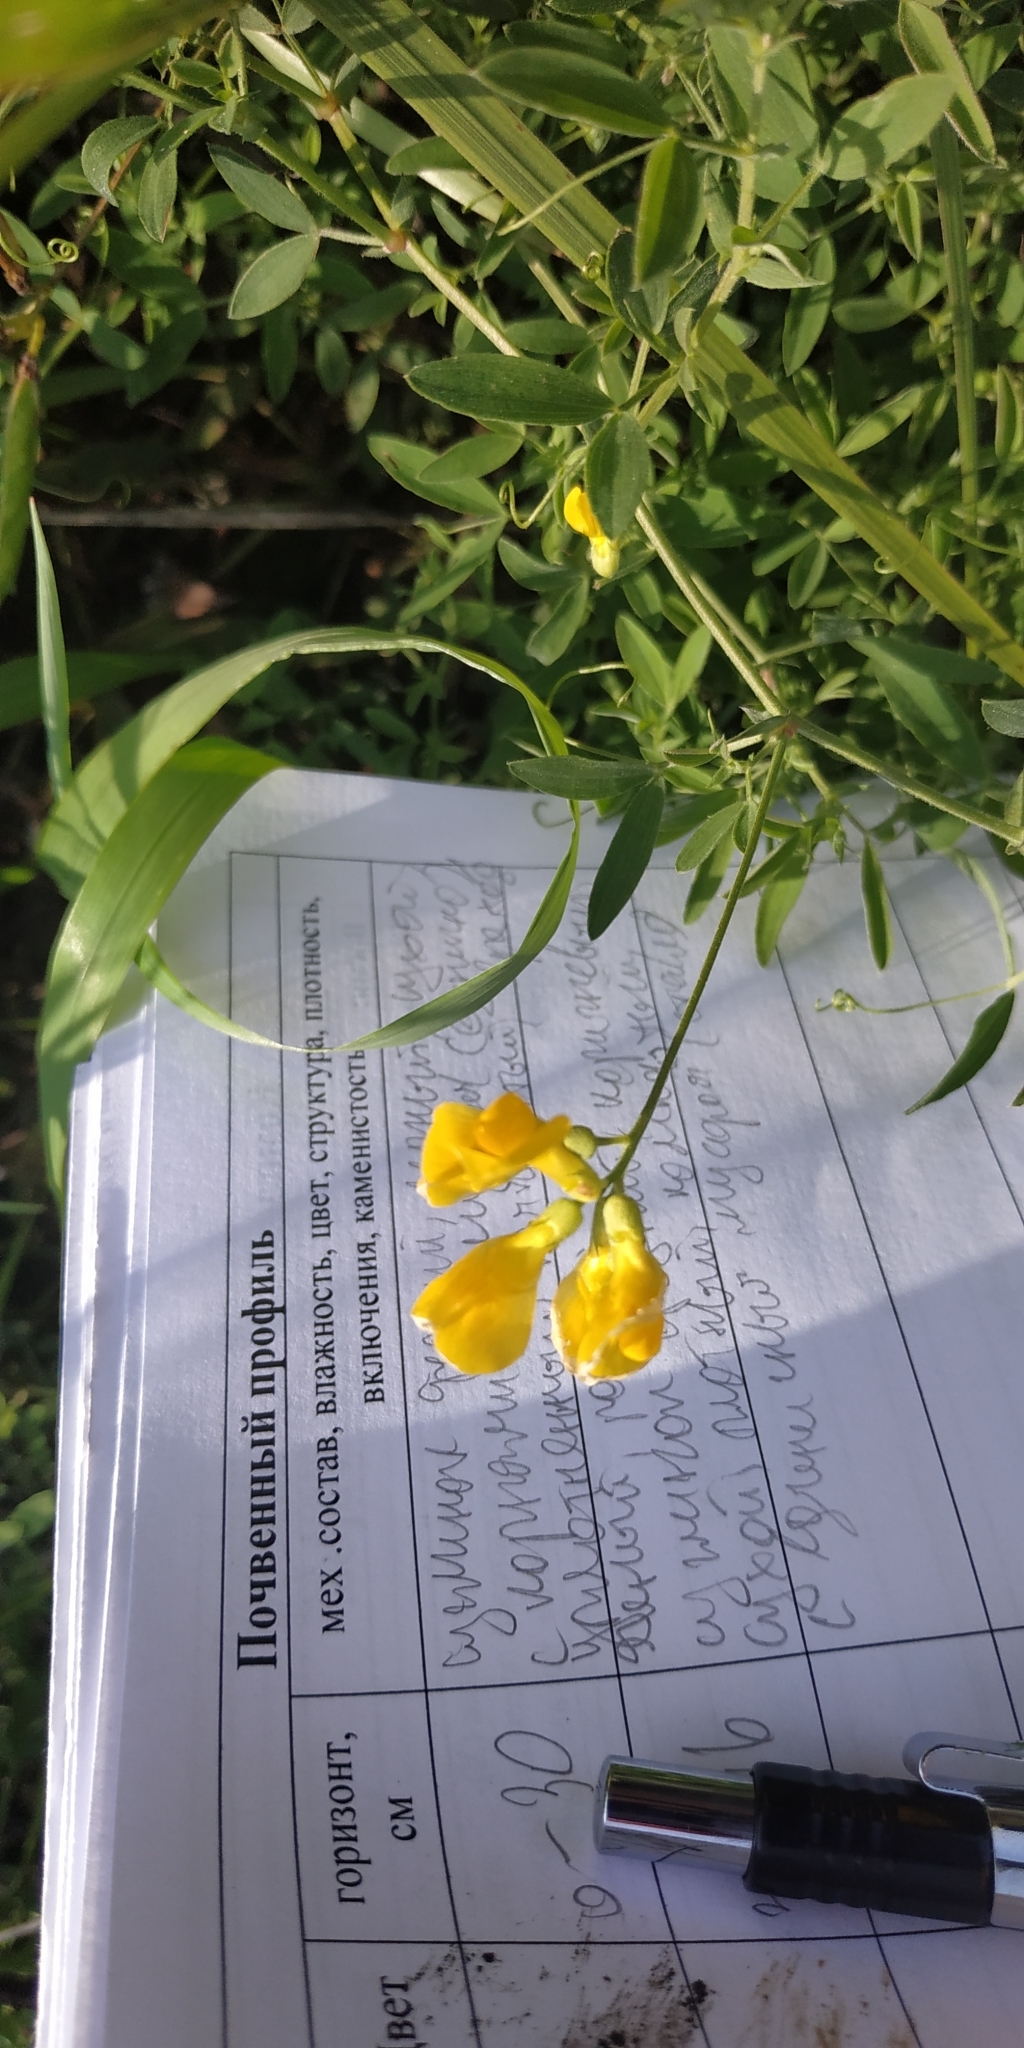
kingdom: Plantae
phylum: Tracheophyta
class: Magnoliopsida
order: Fabales
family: Fabaceae
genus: Lathyrus
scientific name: Lathyrus pratensis
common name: Meadow vetchling
